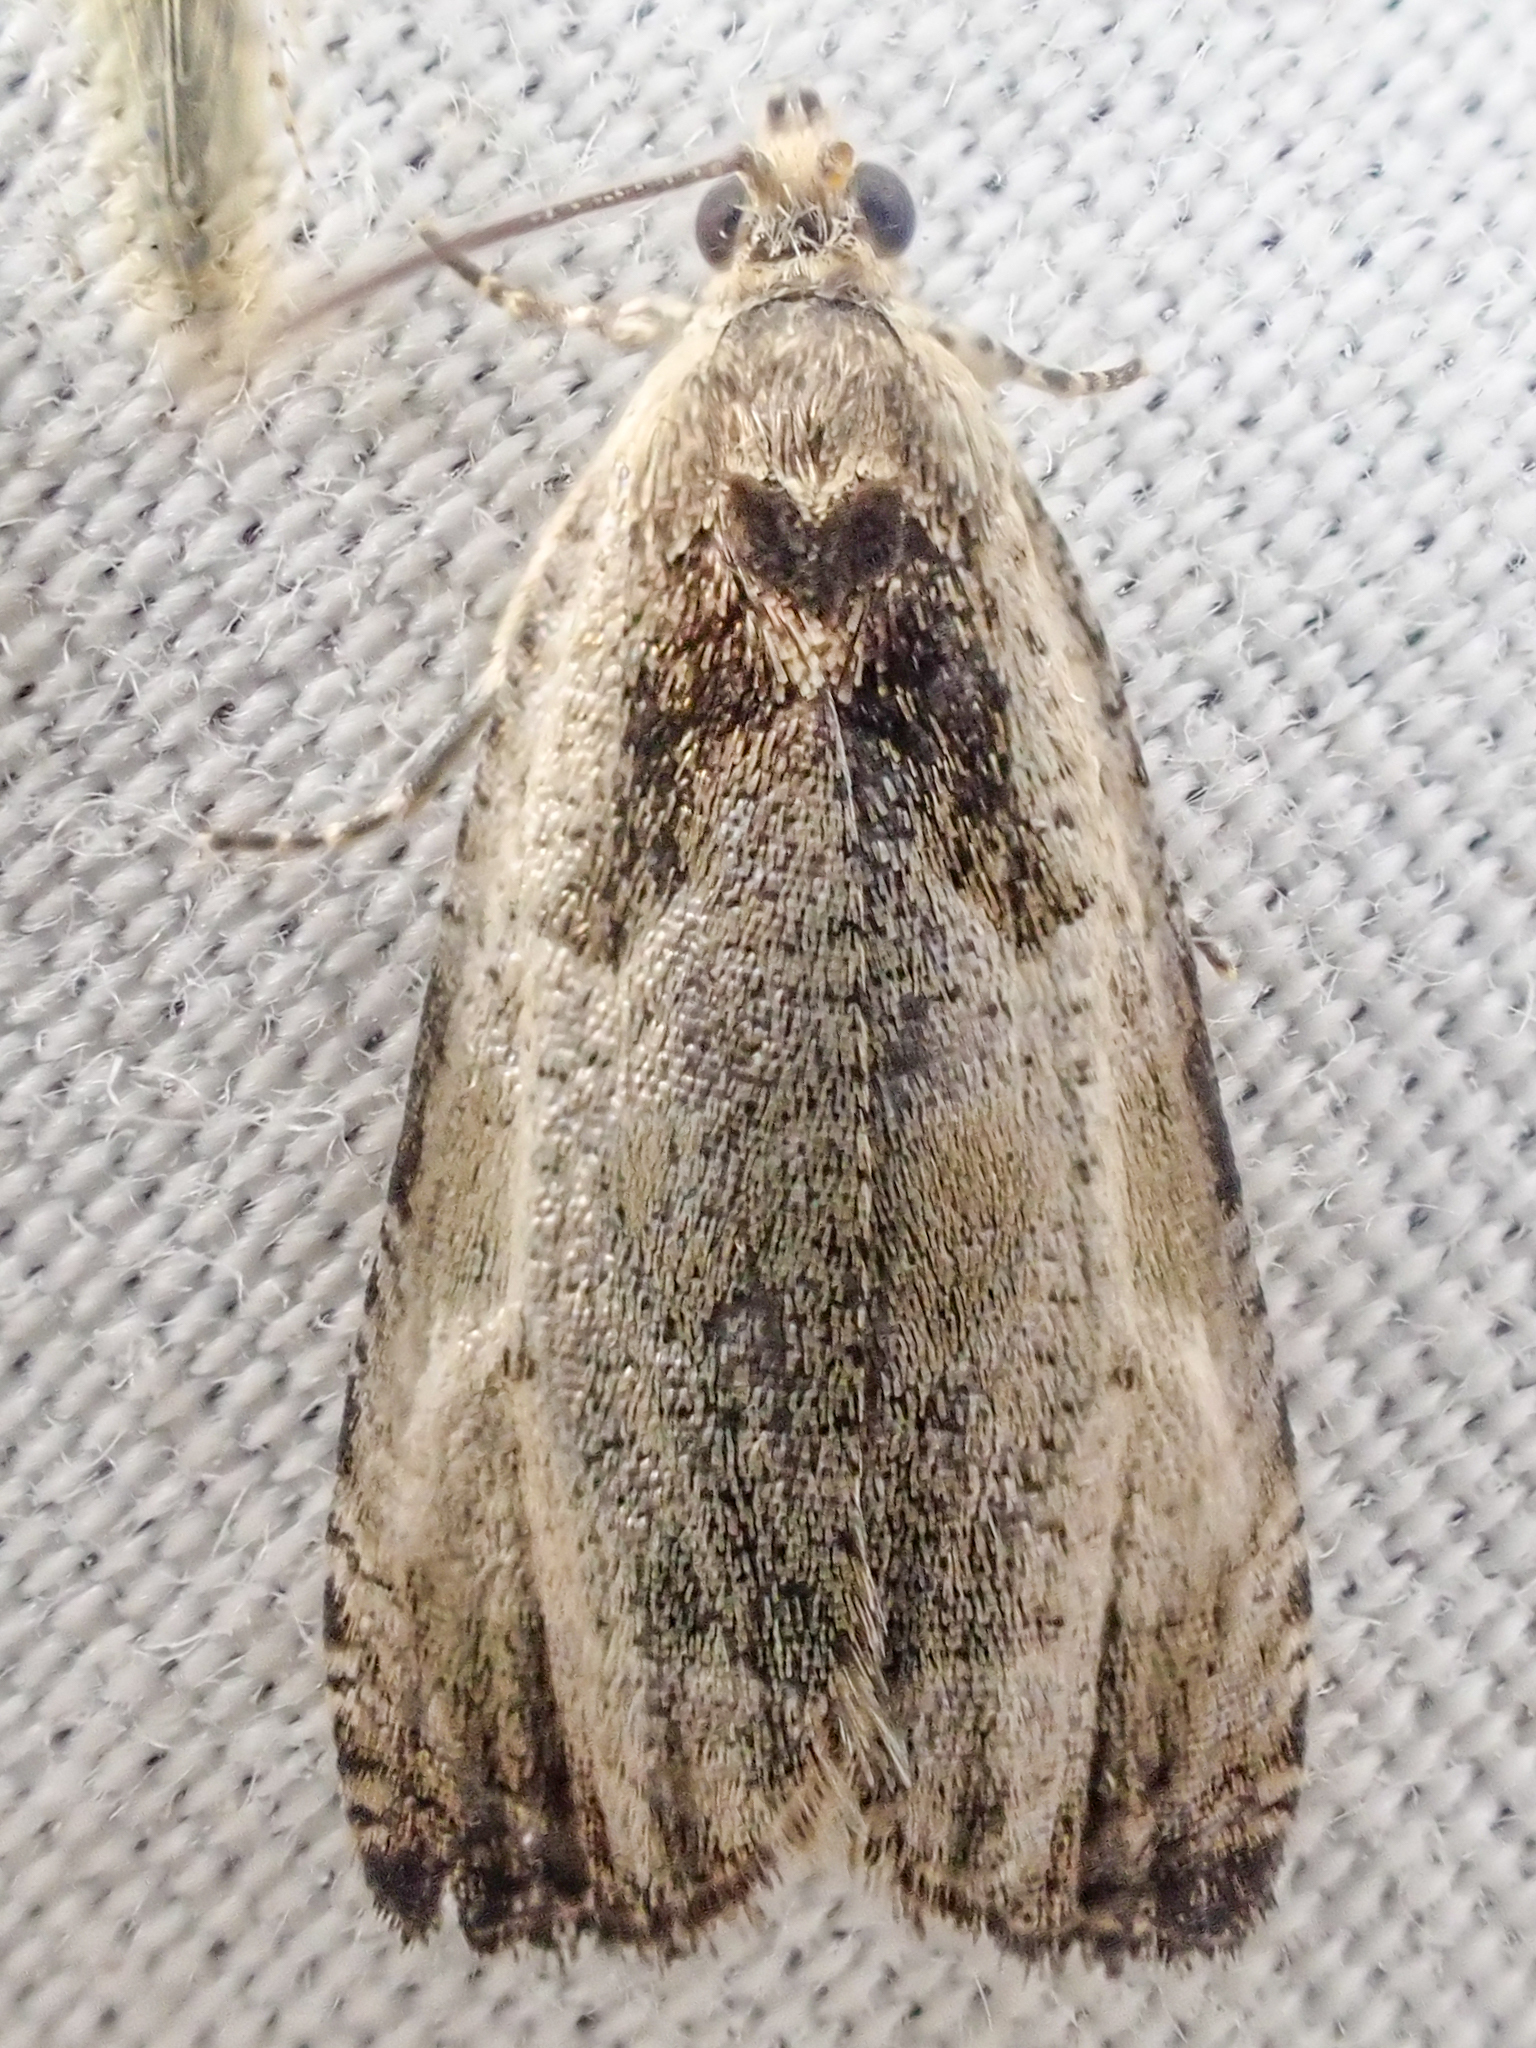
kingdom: Animalia
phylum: Arthropoda
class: Insecta
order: Lepidoptera
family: Tortricidae
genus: Olethreutes
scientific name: Olethreutes punctanum
